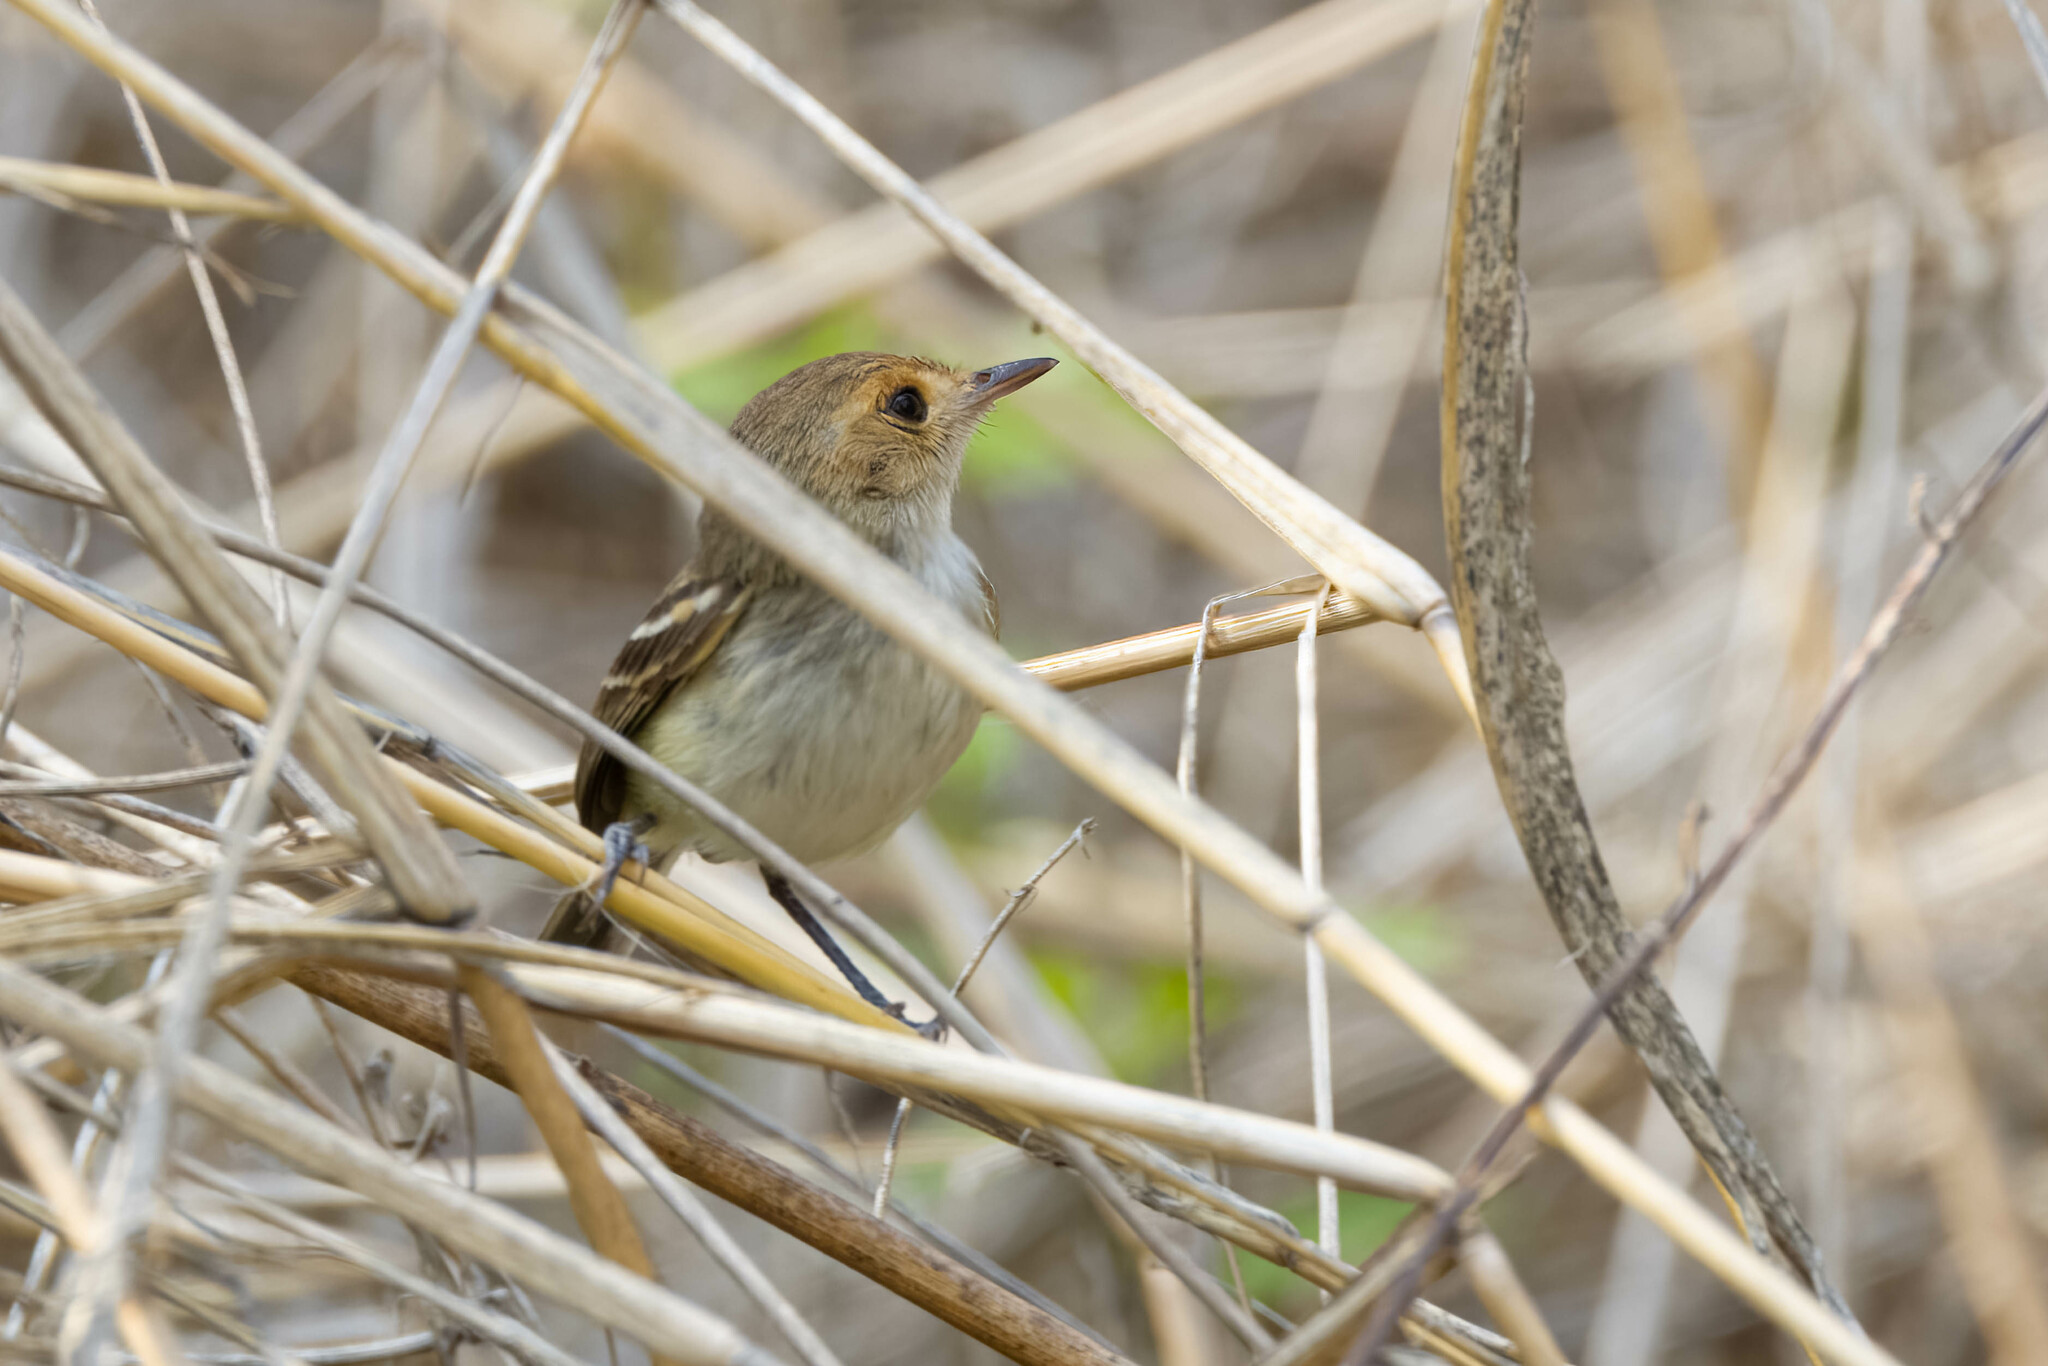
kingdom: Animalia
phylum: Chordata
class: Aves
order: Passeriformes
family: Tyrannidae
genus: Euscarthmus
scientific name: Euscarthmus fulviceps
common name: Fulvous-faced scrub tyrant
